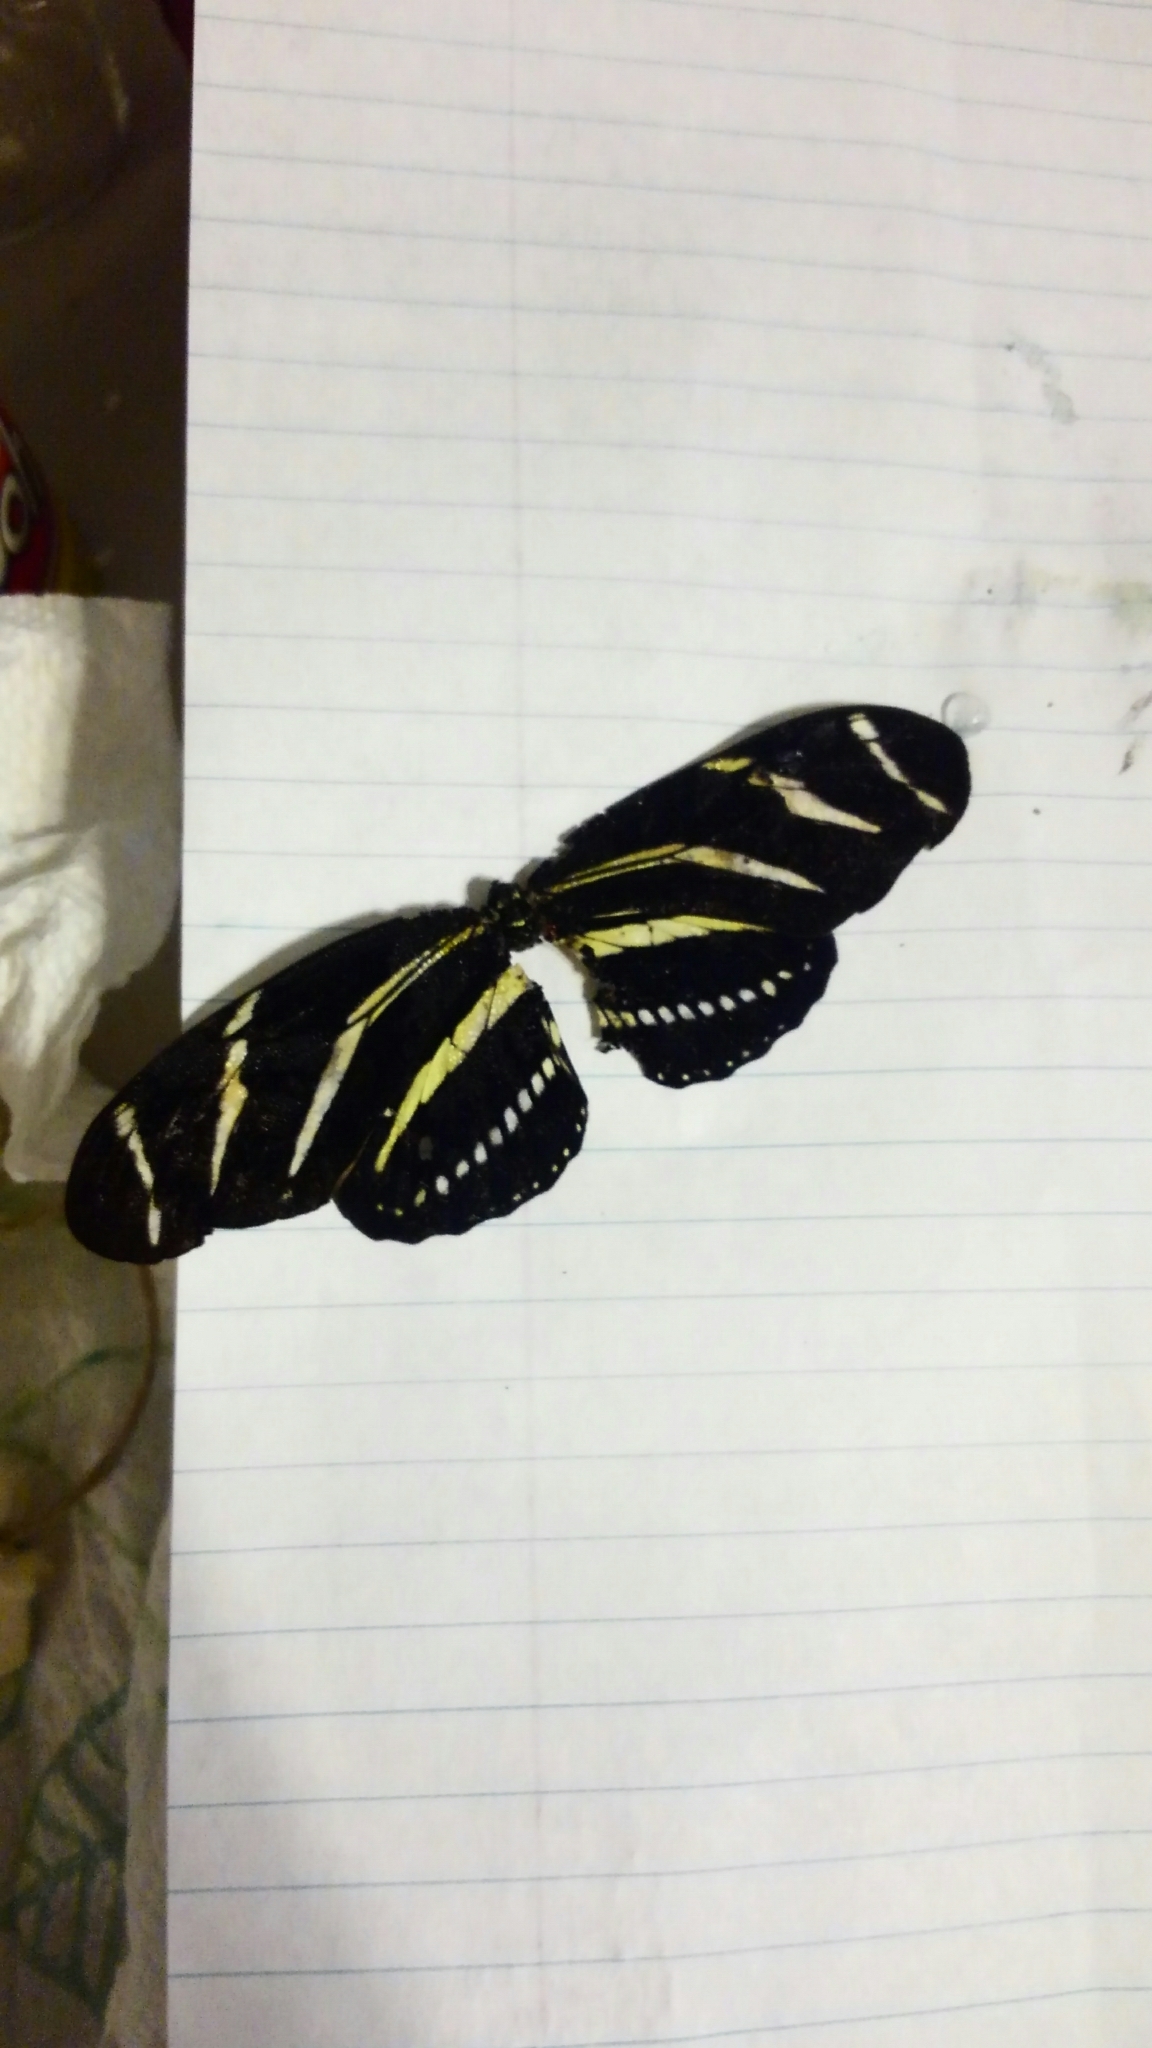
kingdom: Animalia
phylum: Arthropoda
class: Insecta
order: Lepidoptera
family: Nymphalidae
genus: Heliconius
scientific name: Heliconius charithonia
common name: Zebra long wing
